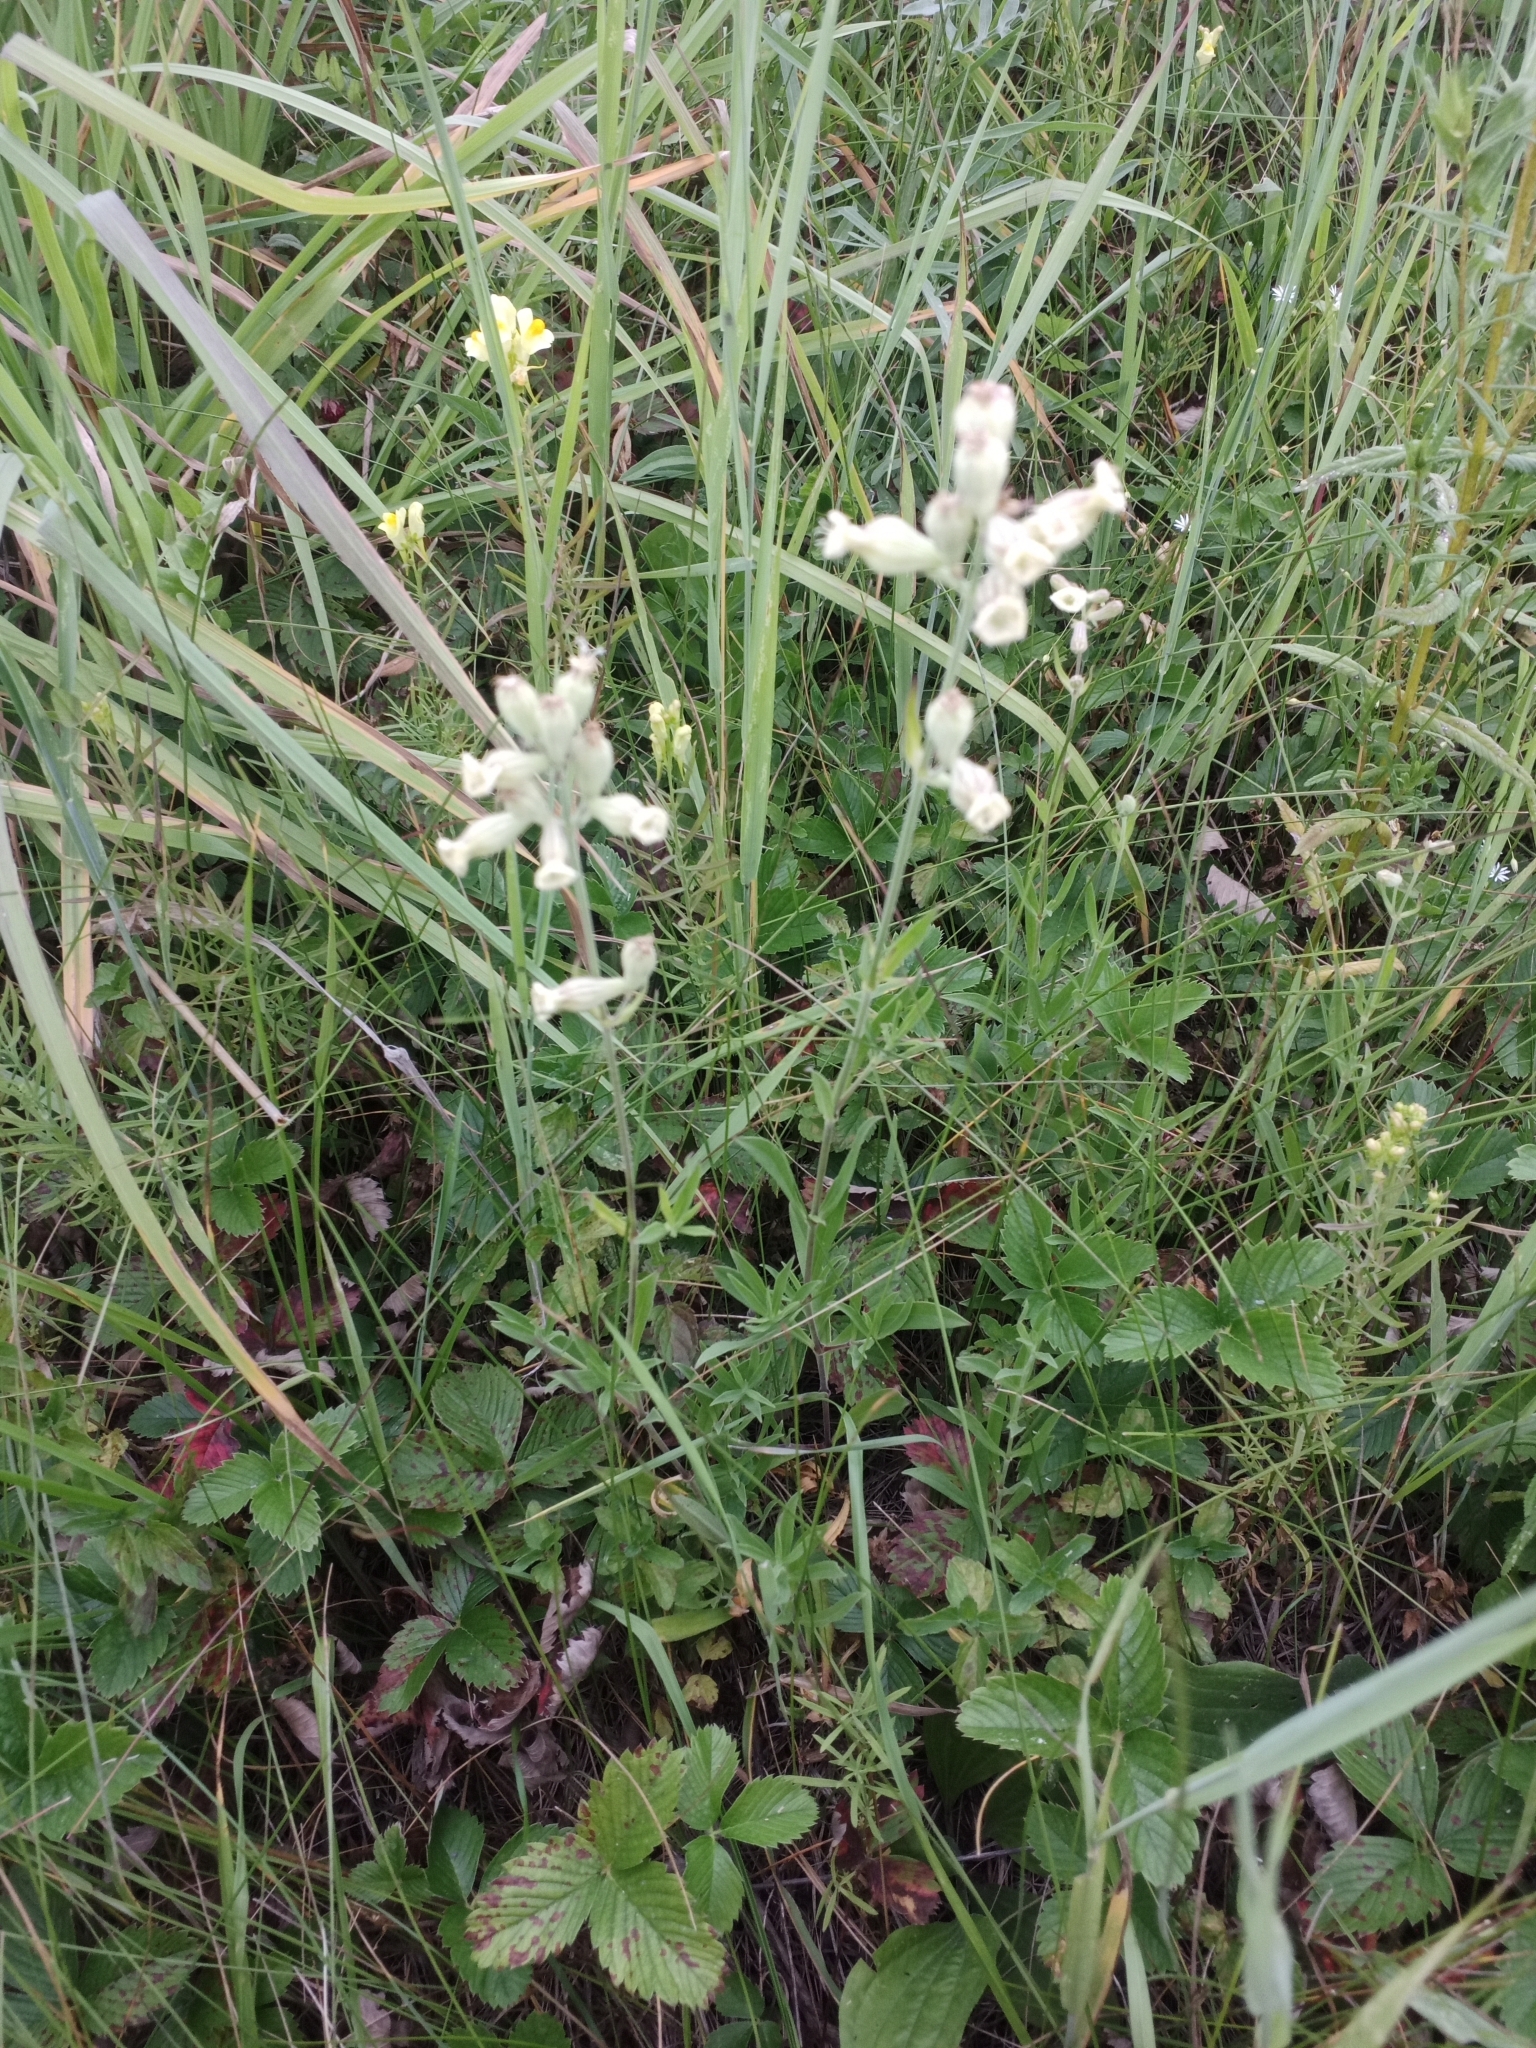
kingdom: Plantae
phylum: Tracheophyta
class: Magnoliopsida
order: Caryophyllales
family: Caryophyllaceae
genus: Silene
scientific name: Silene amoena
